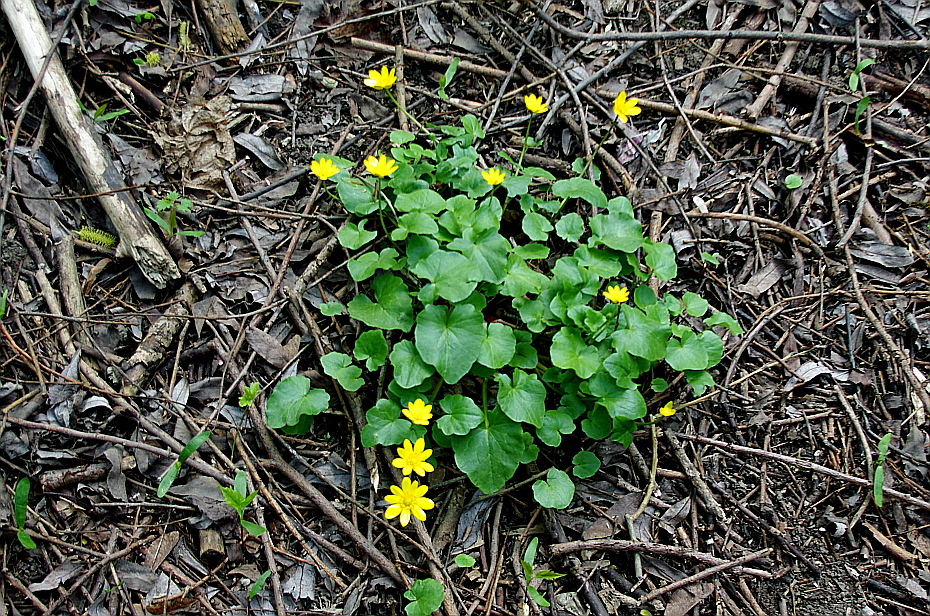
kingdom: Plantae
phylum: Tracheophyta
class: Magnoliopsida
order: Ranunculales
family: Ranunculaceae
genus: Ficaria
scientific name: Ficaria verna
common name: Lesser celandine
